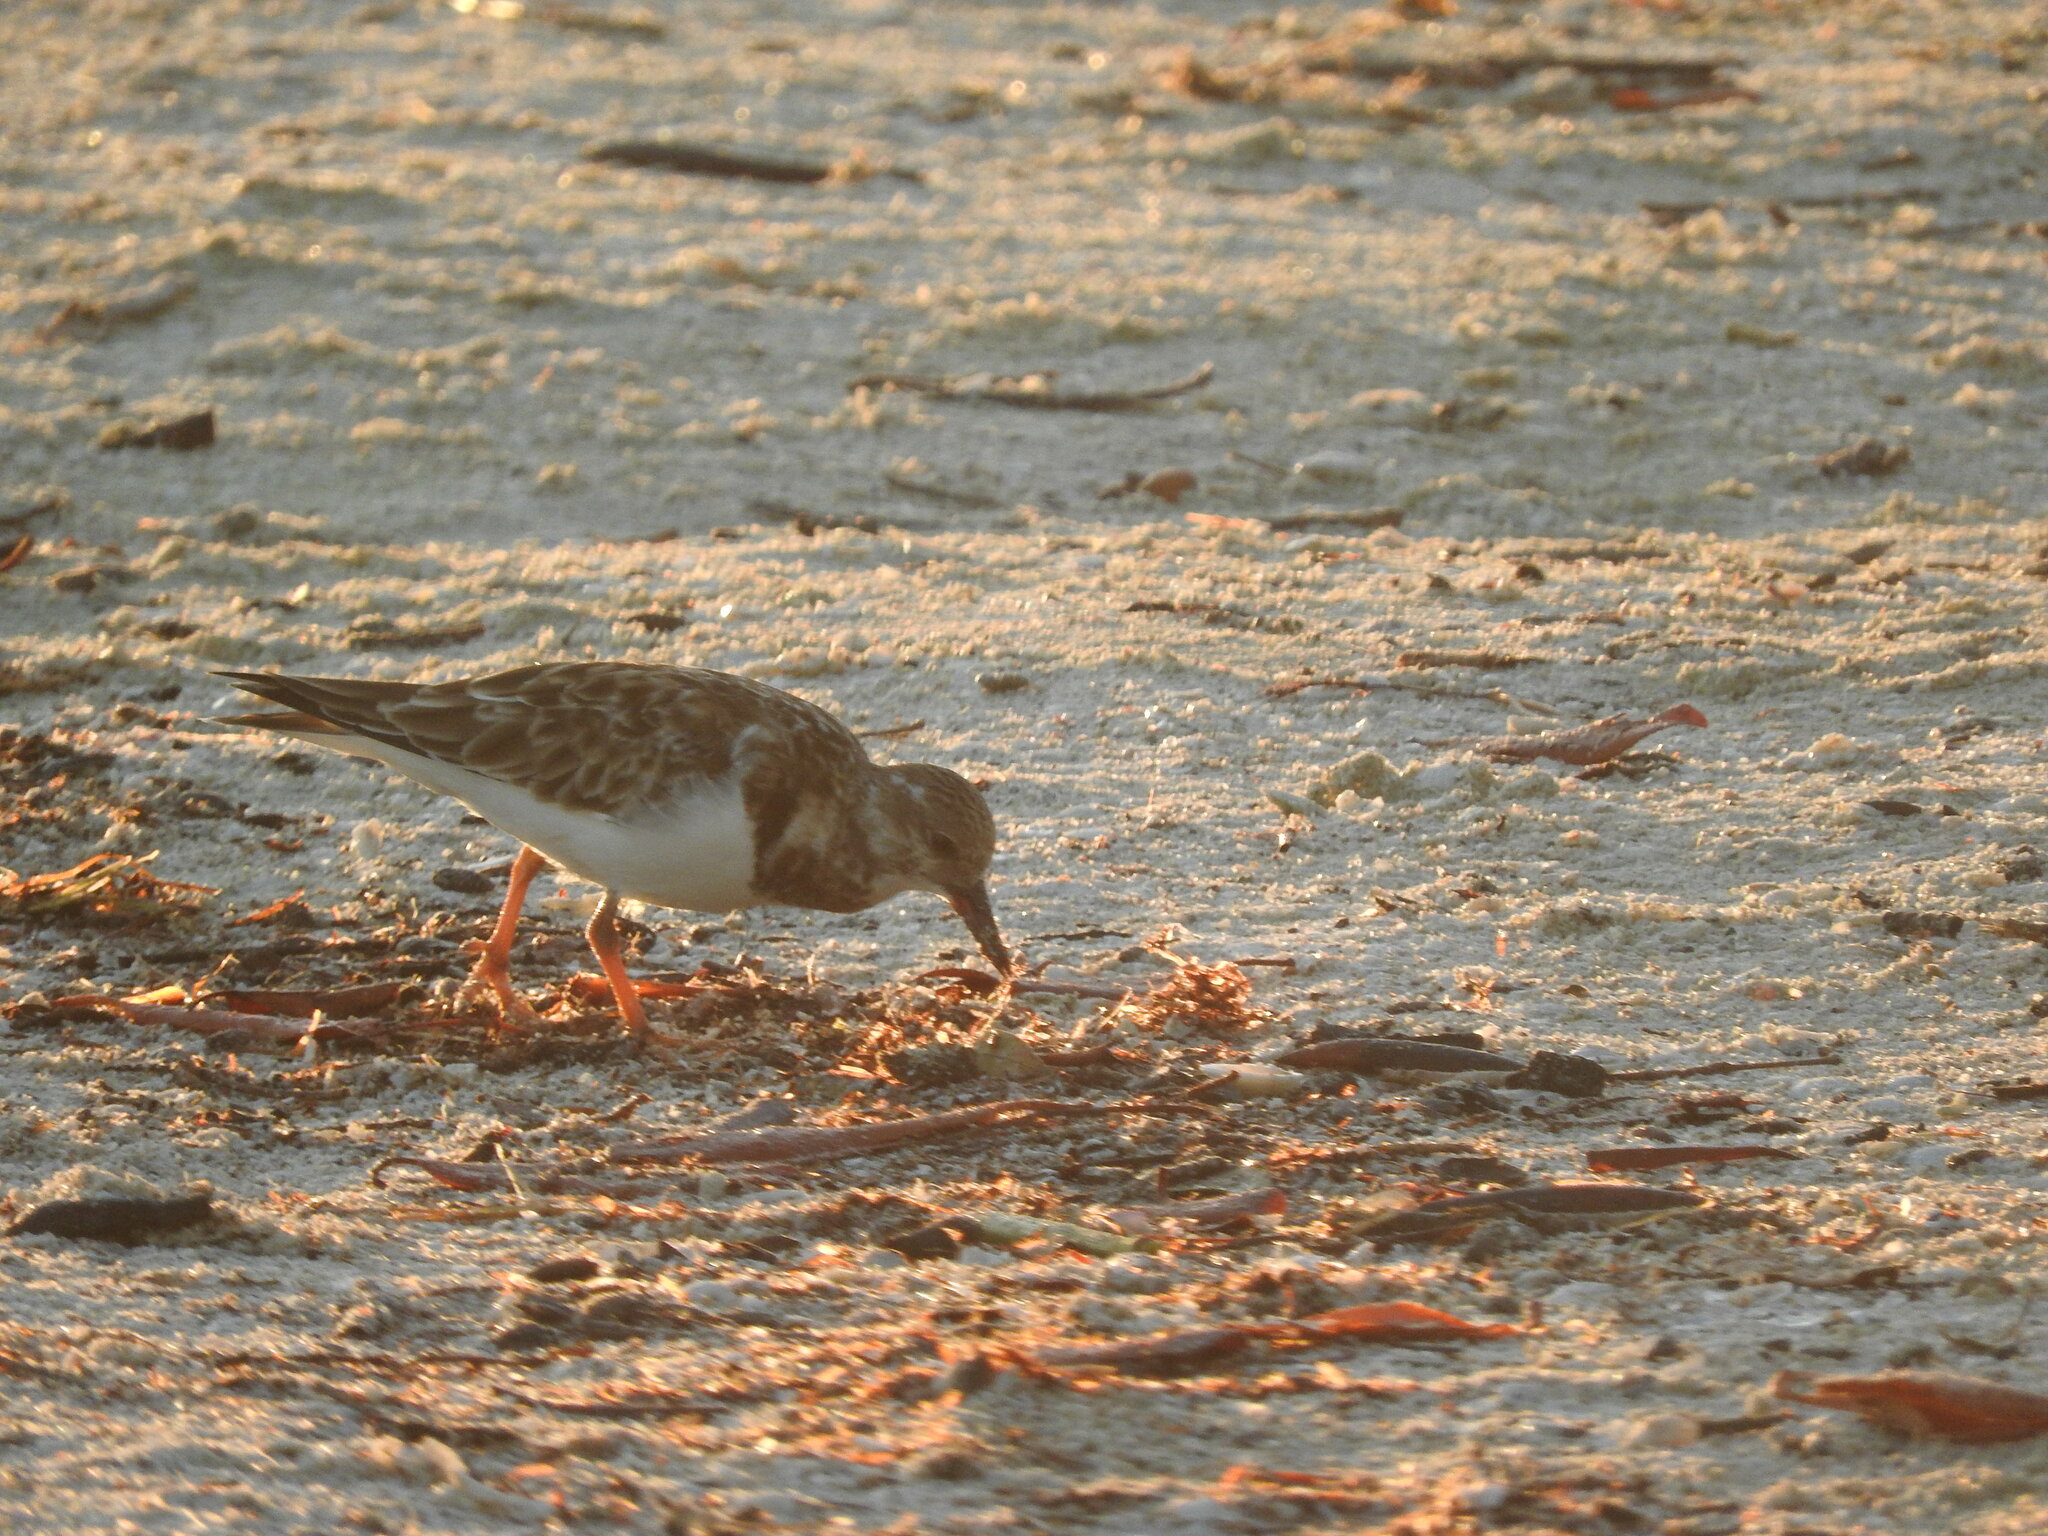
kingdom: Animalia
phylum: Chordata
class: Aves
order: Charadriiformes
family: Scolopacidae
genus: Arenaria
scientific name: Arenaria interpres
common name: Ruddy turnstone
